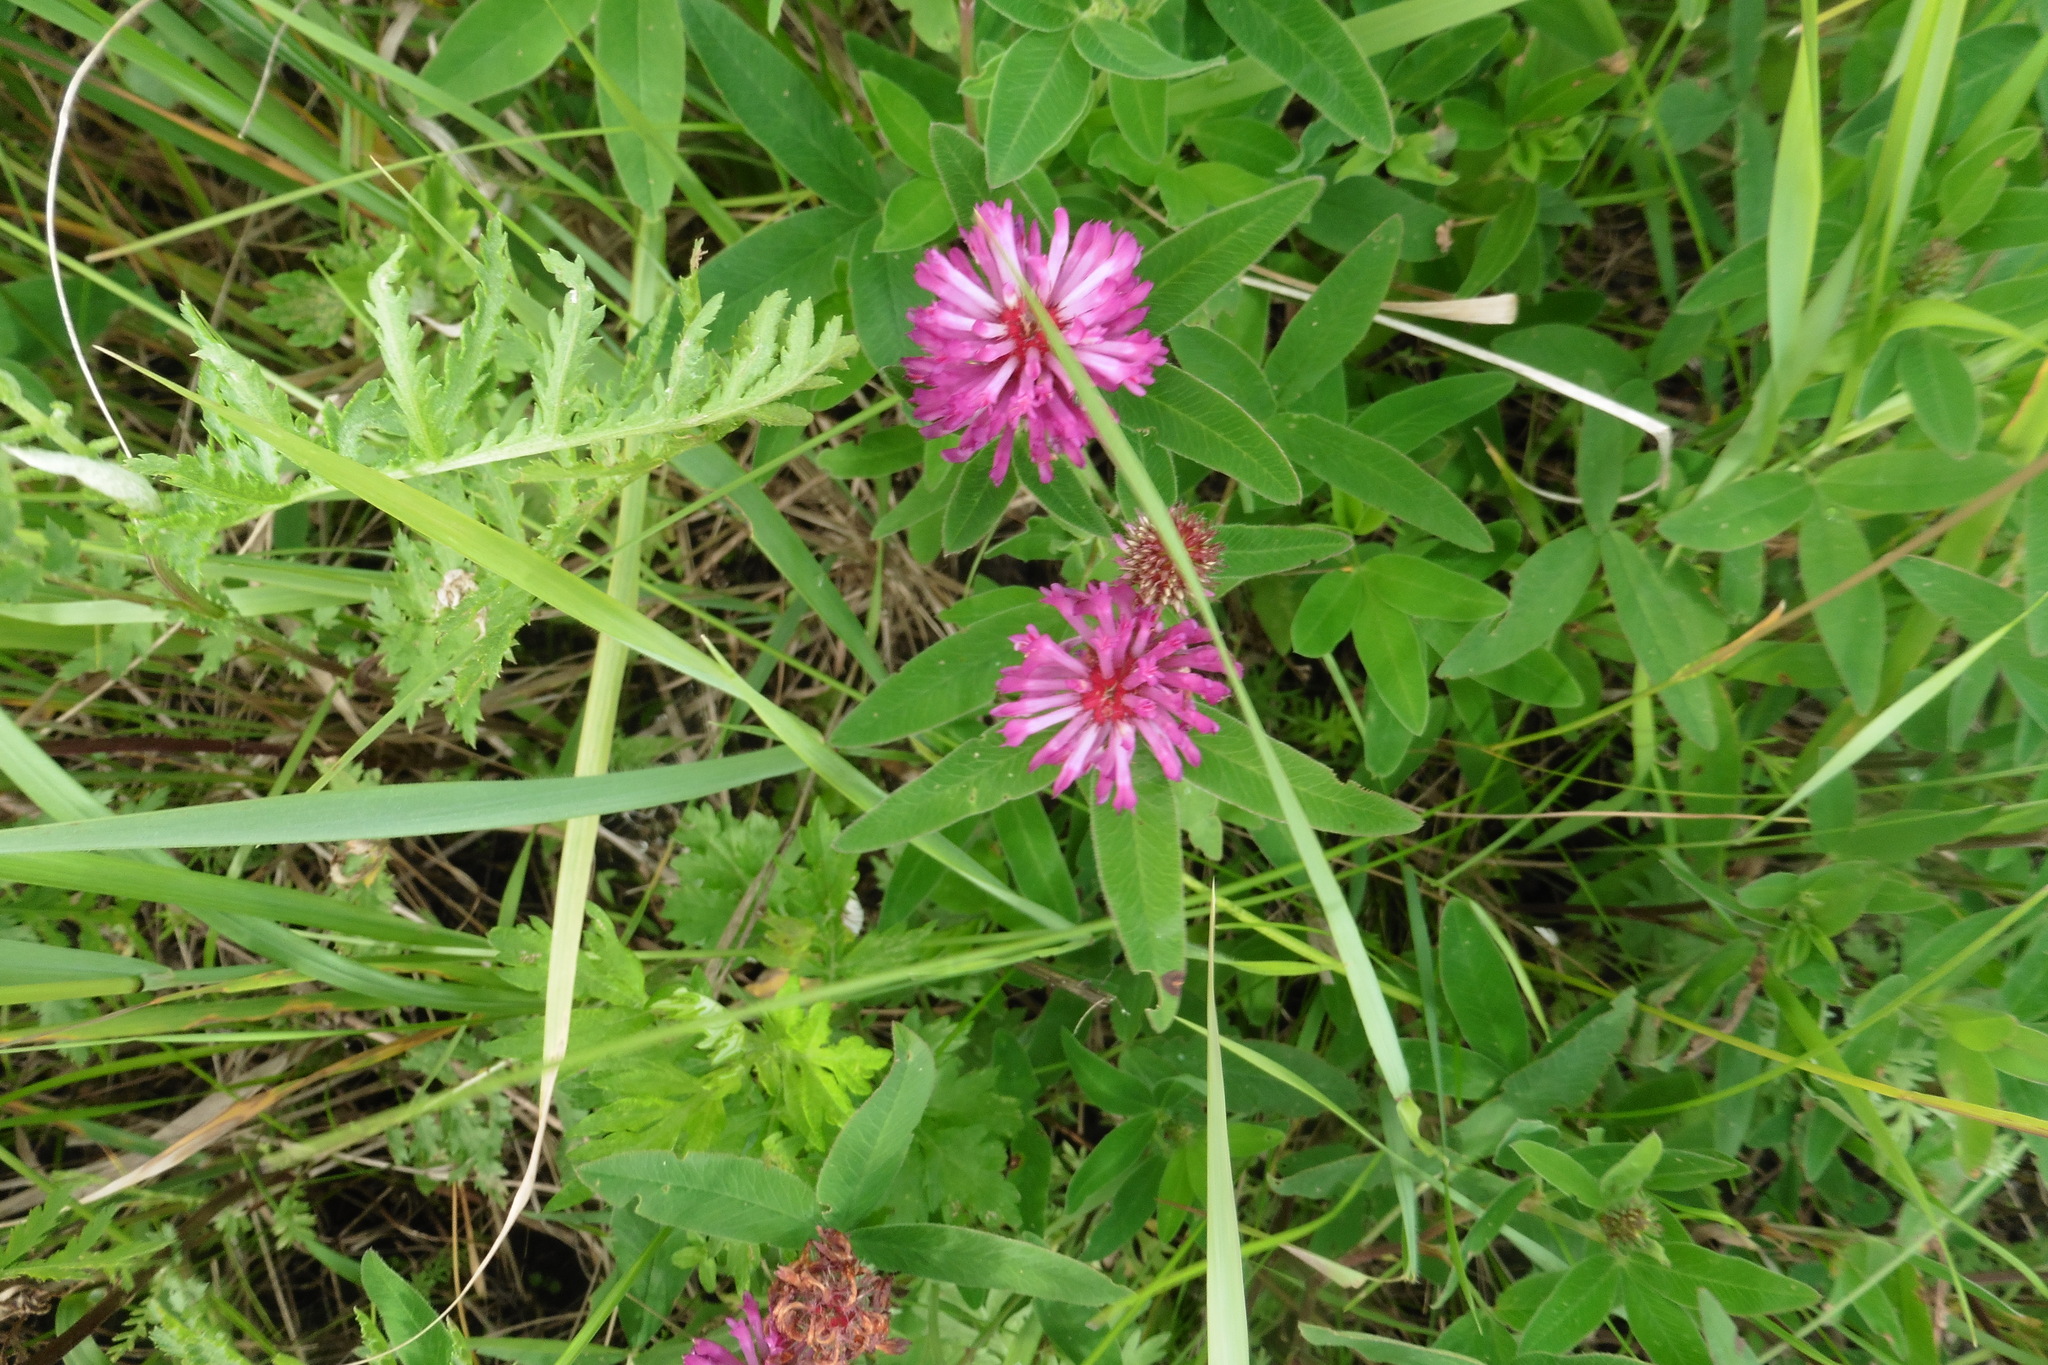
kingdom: Plantae
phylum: Tracheophyta
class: Magnoliopsida
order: Fabales
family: Fabaceae
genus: Trifolium
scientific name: Trifolium medium
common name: Zigzag clover
